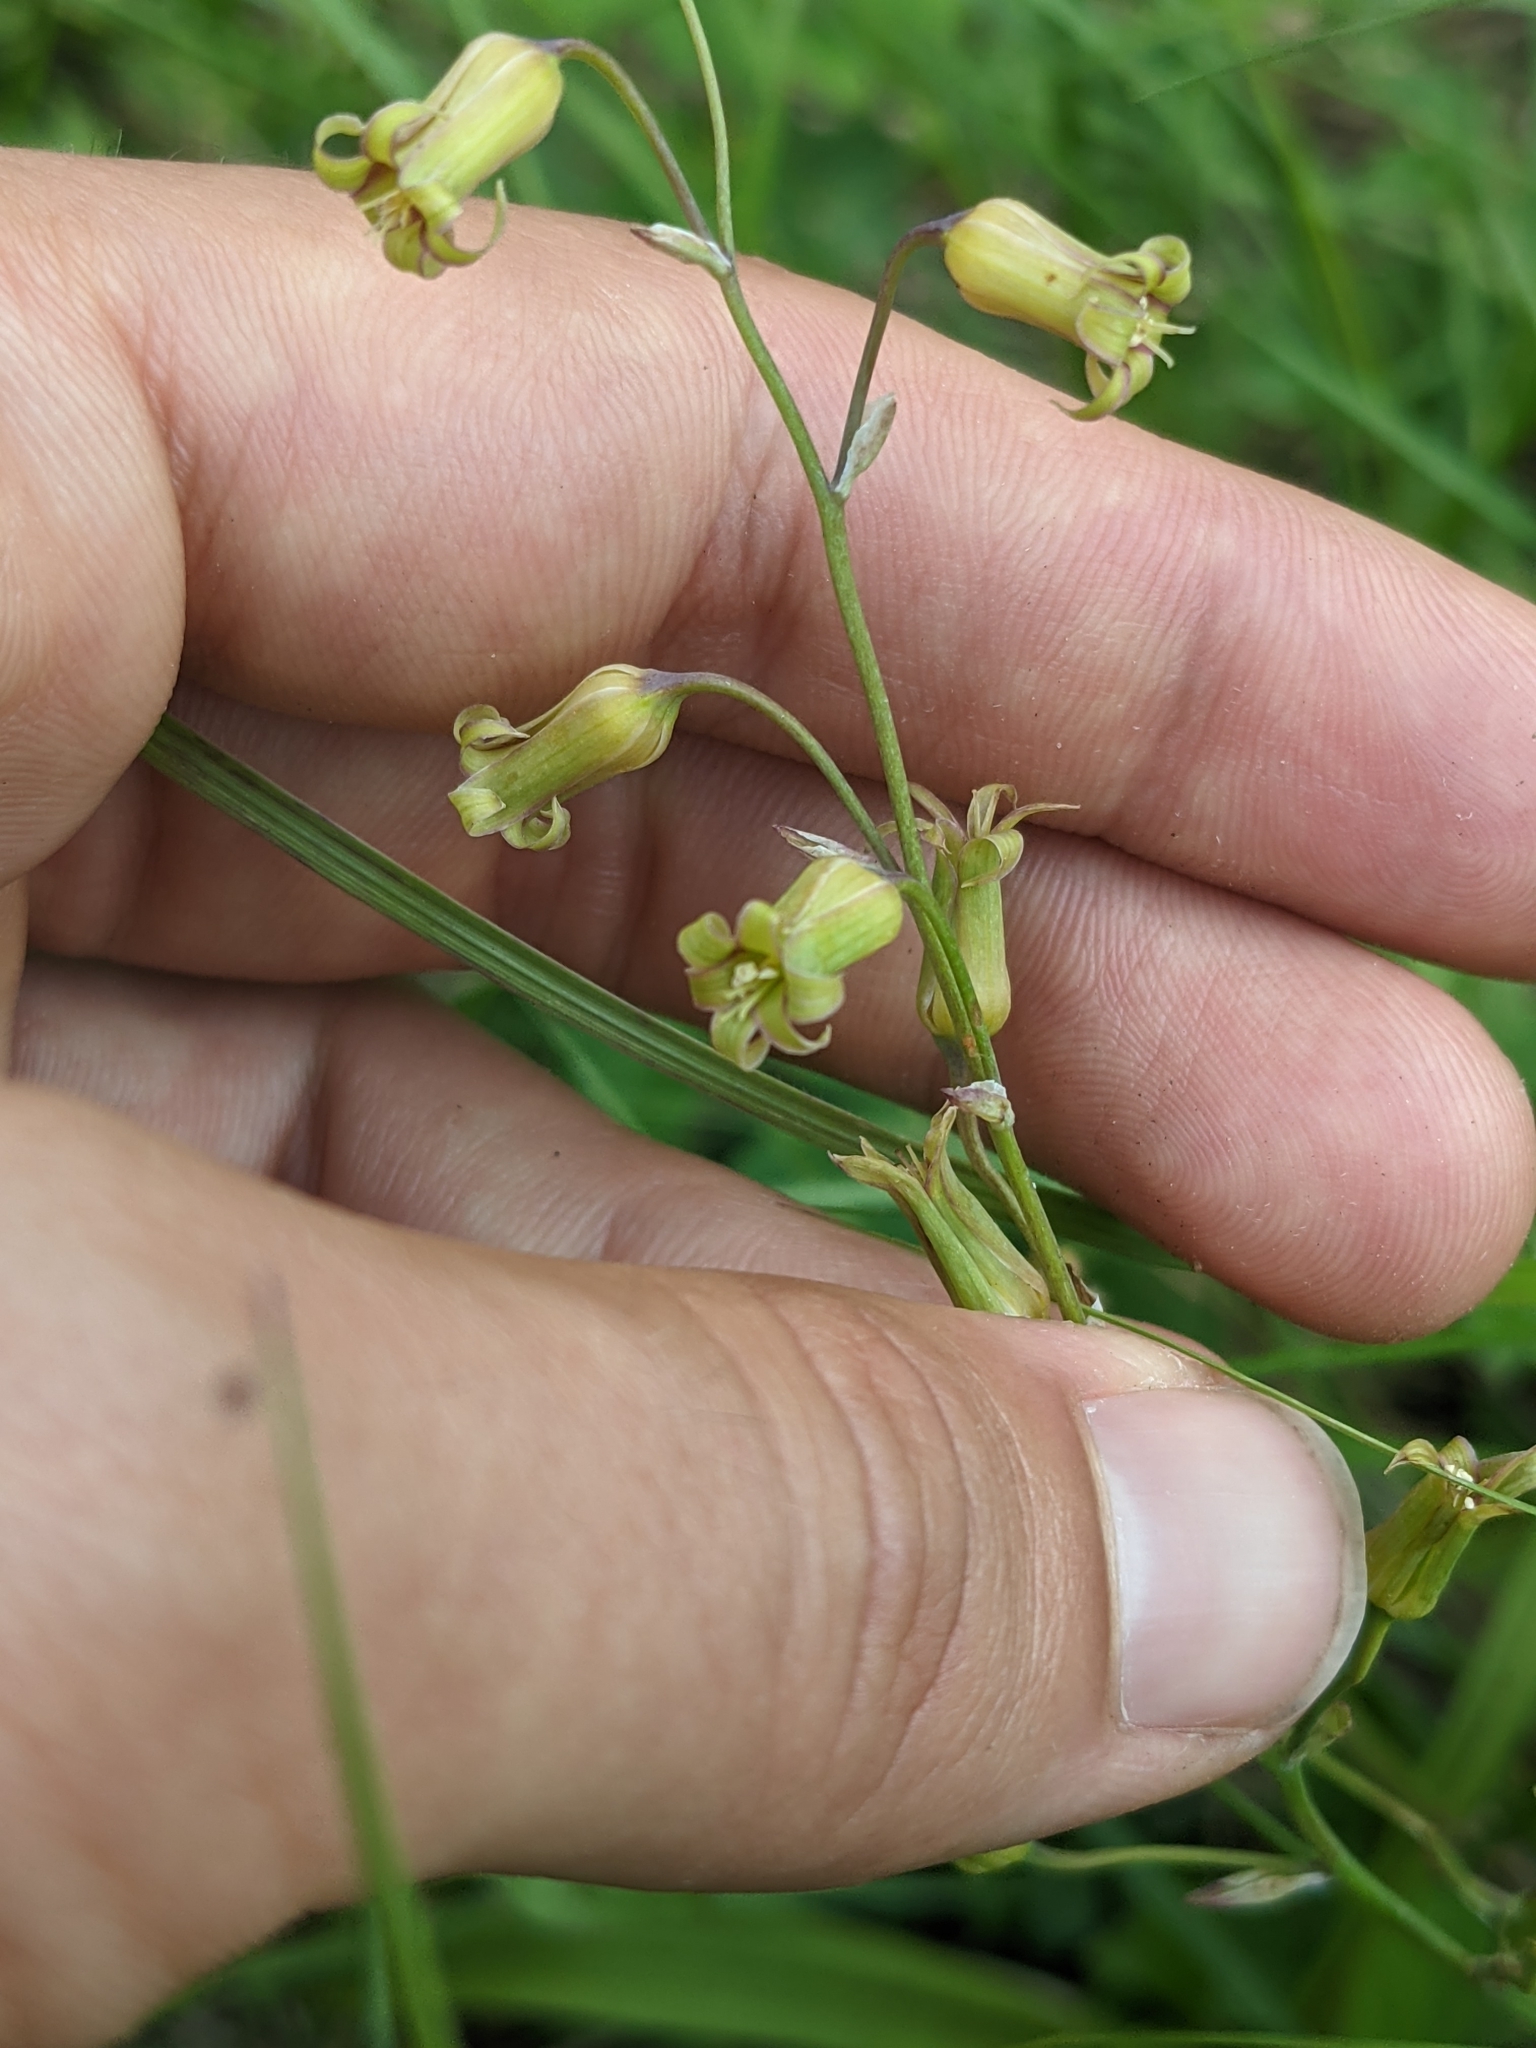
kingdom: Plantae
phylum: Tracheophyta
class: Liliopsida
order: Liliales
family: Melanthiaceae
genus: Anticlea
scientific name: Anticlea occidentalis
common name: Bronze-bells
